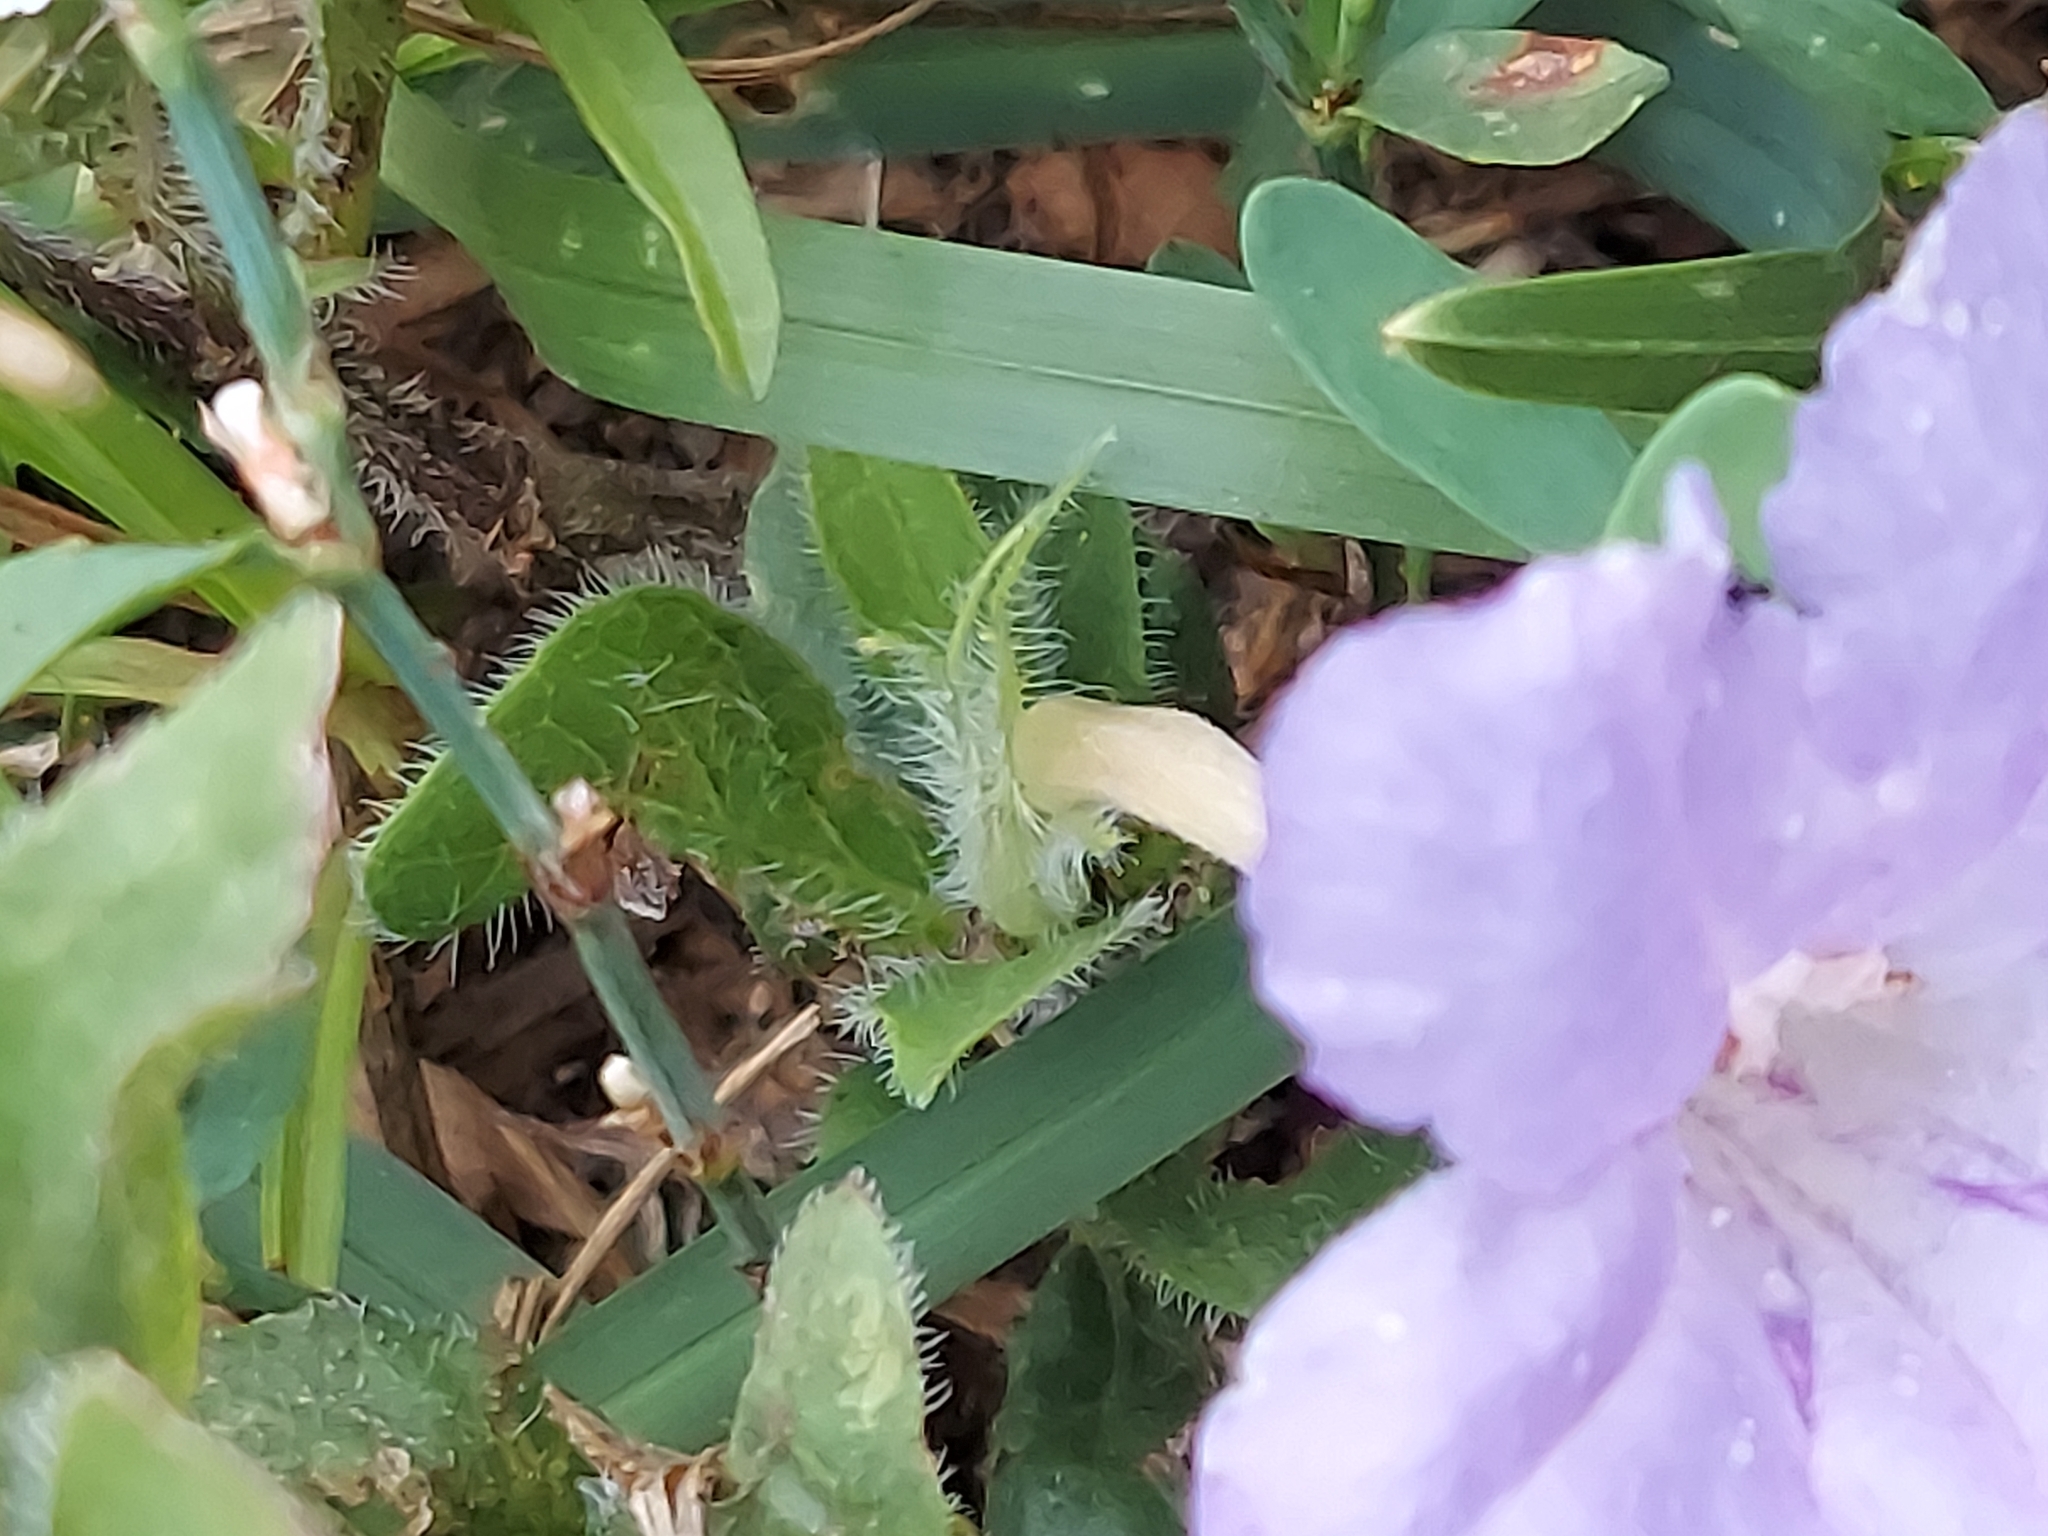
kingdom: Plantae
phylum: Tracheophyta
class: Magnoliopsida
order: Lamiales
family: Acanthaceae
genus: Ruellia
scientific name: Ruellia humilis
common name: Fringe-leaf ruellia
